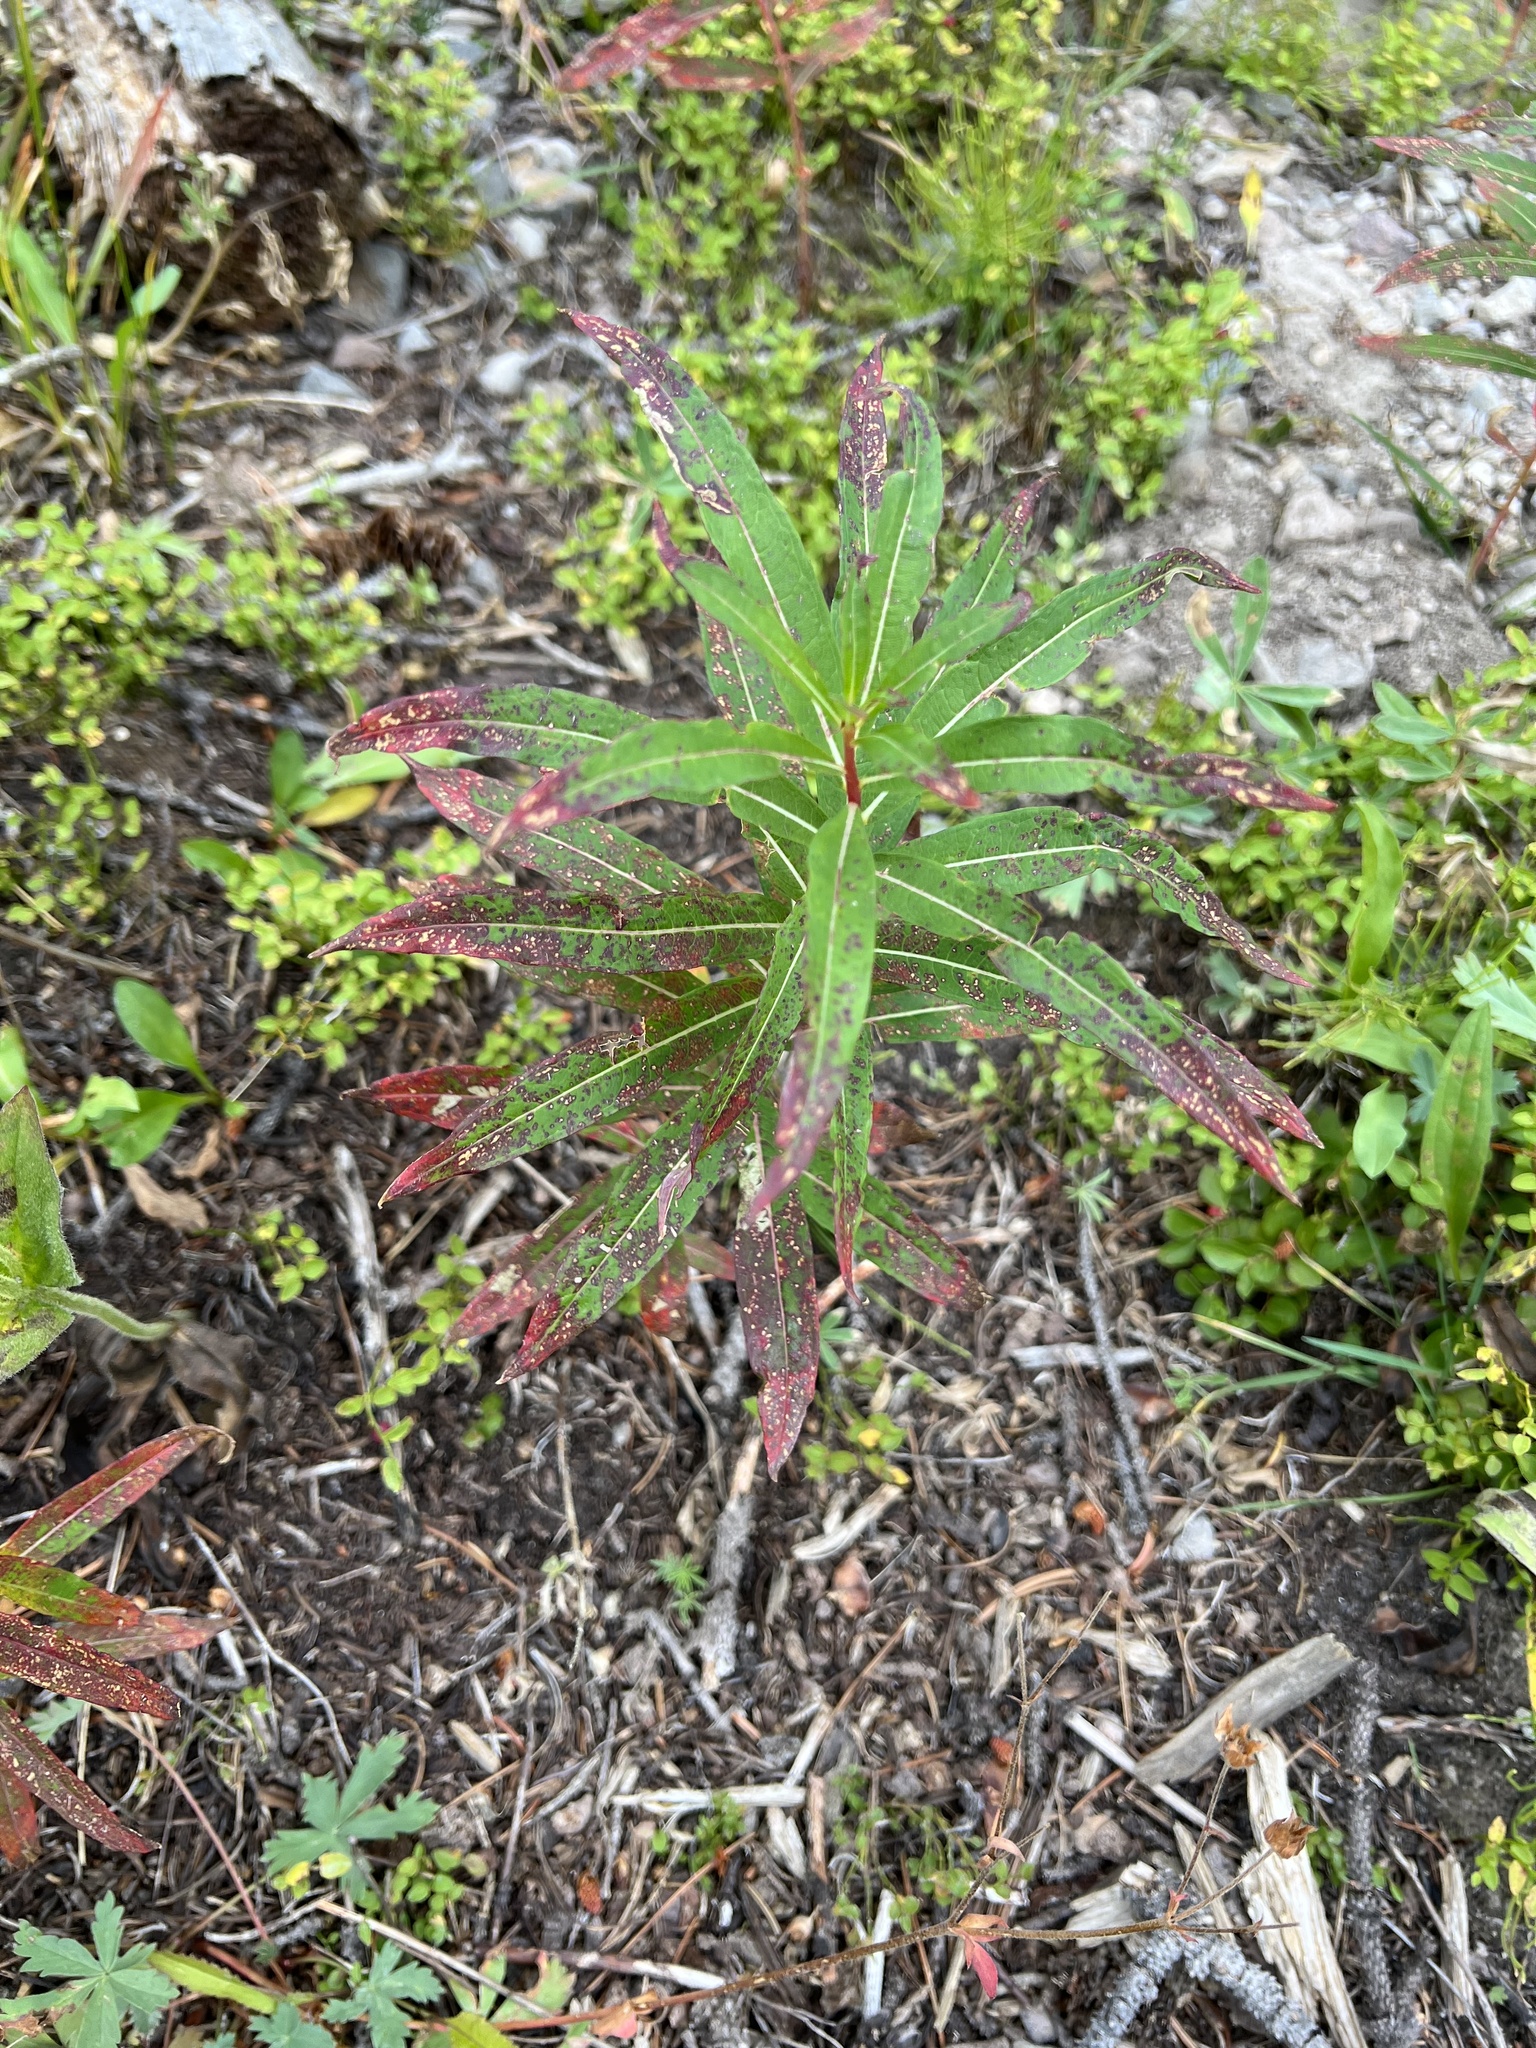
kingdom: Plantae
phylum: Tracheophyta
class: Magnoliopsida
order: Myrtales
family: Onagraceae
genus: Chamaenerion
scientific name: Chamaenerion angustifolium
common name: Fireweed
